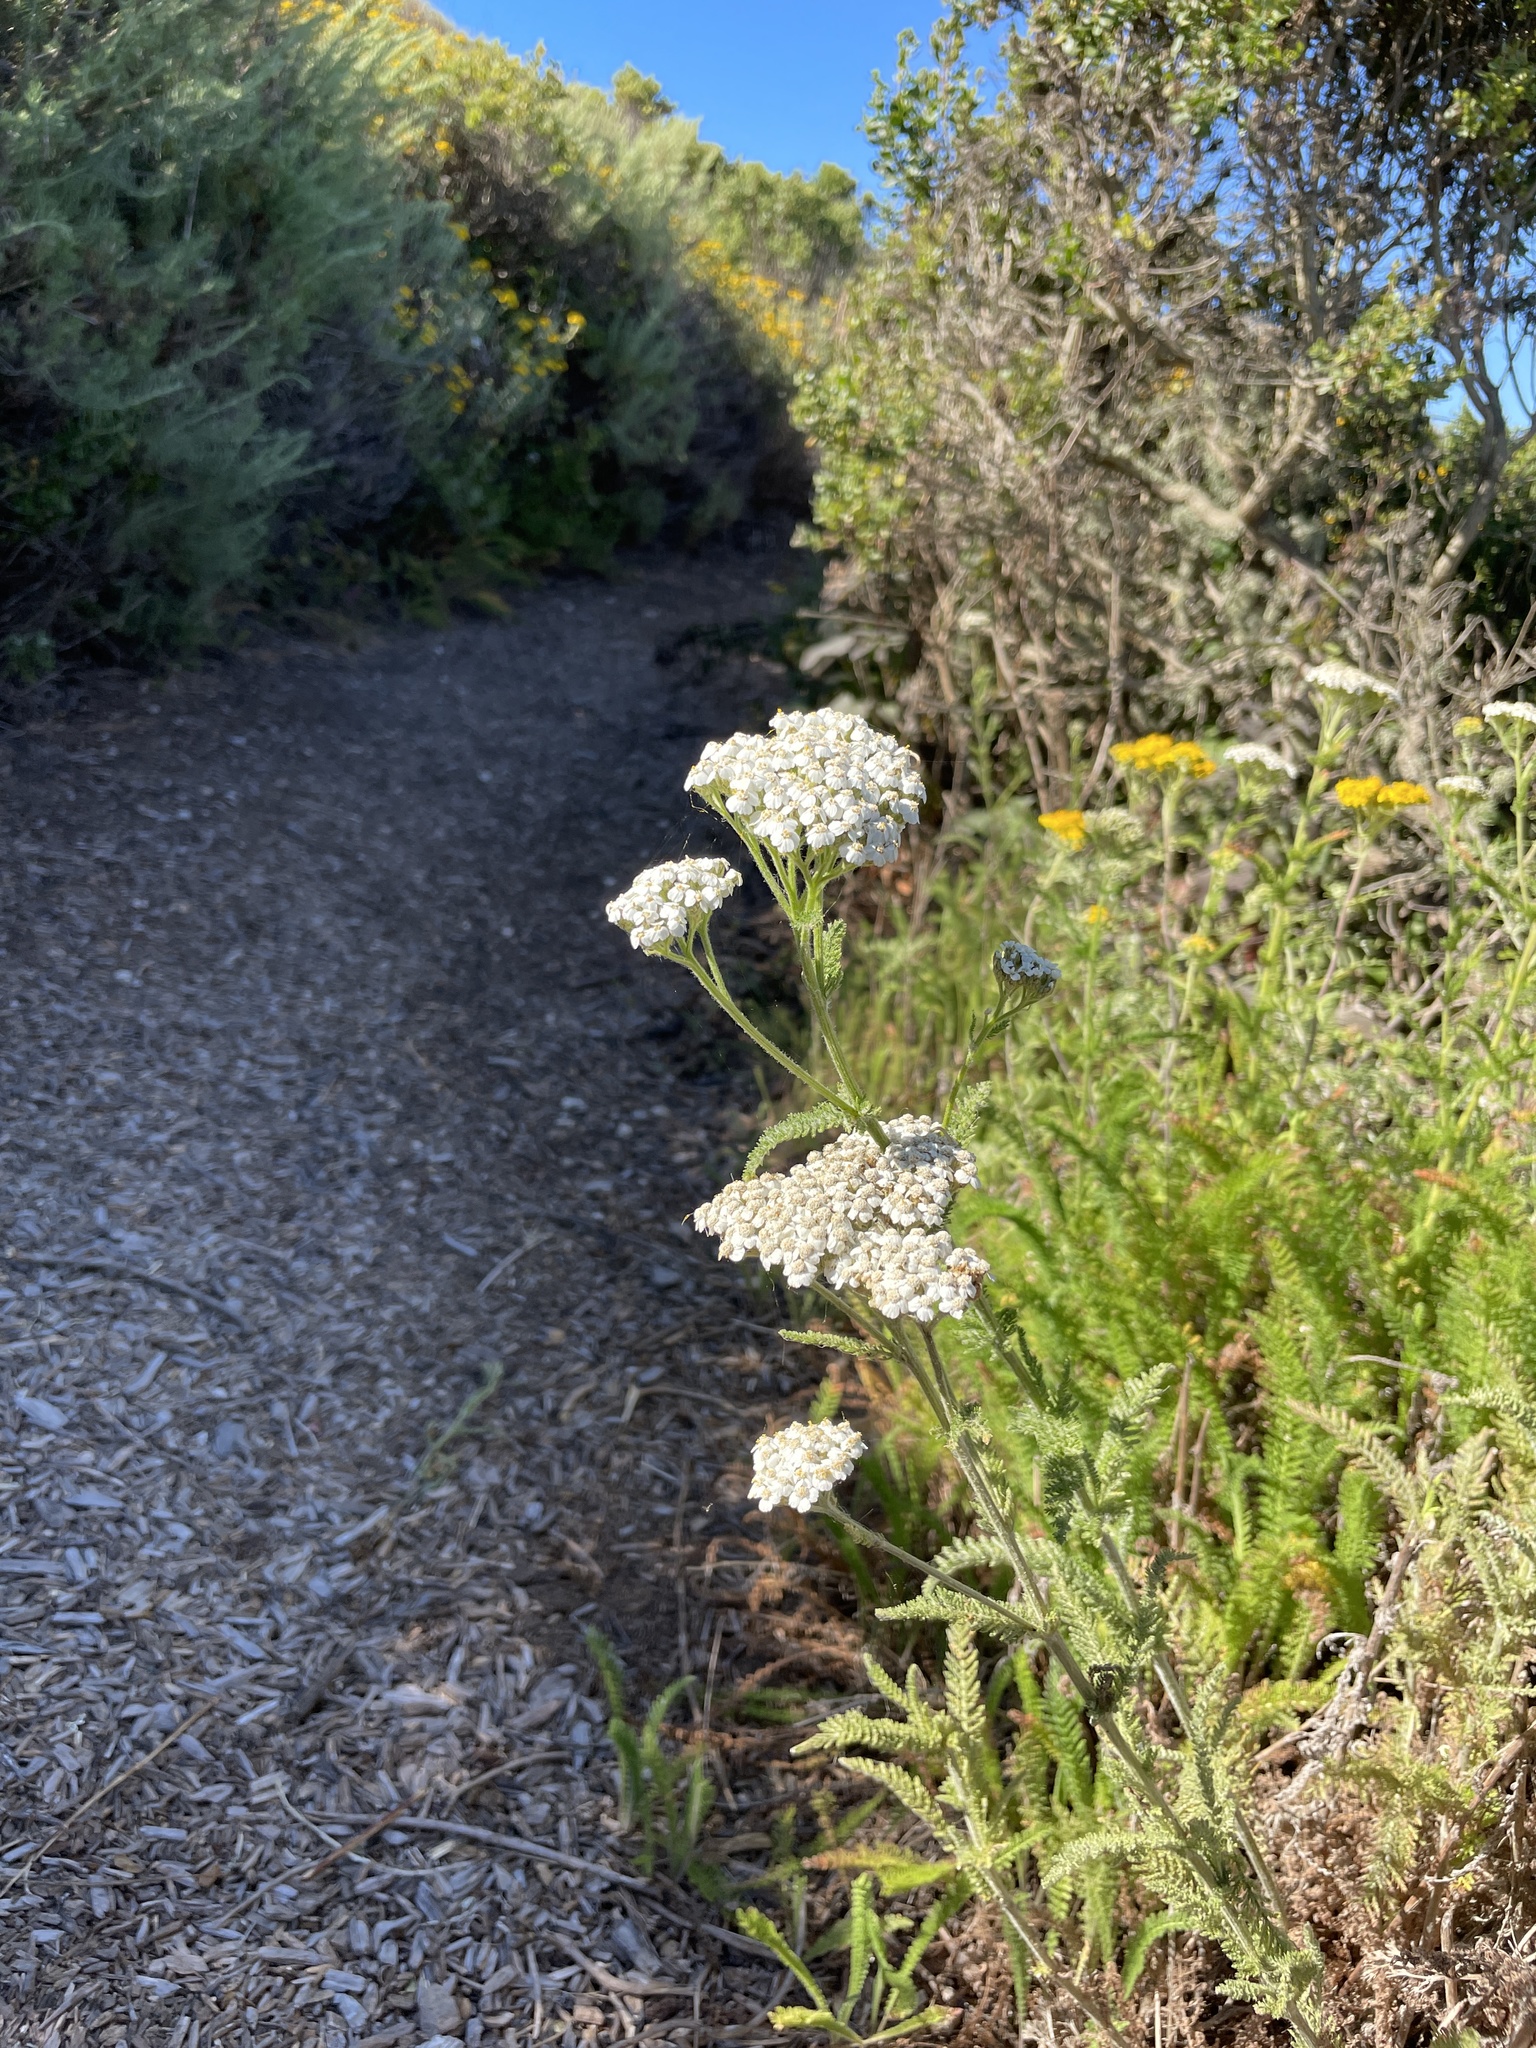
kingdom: Plantae
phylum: Tracheophyta
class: Magnoliopsida
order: Asterales
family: Asteraceae
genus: Achillea
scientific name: Achillea millefolium
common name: Yarrow
